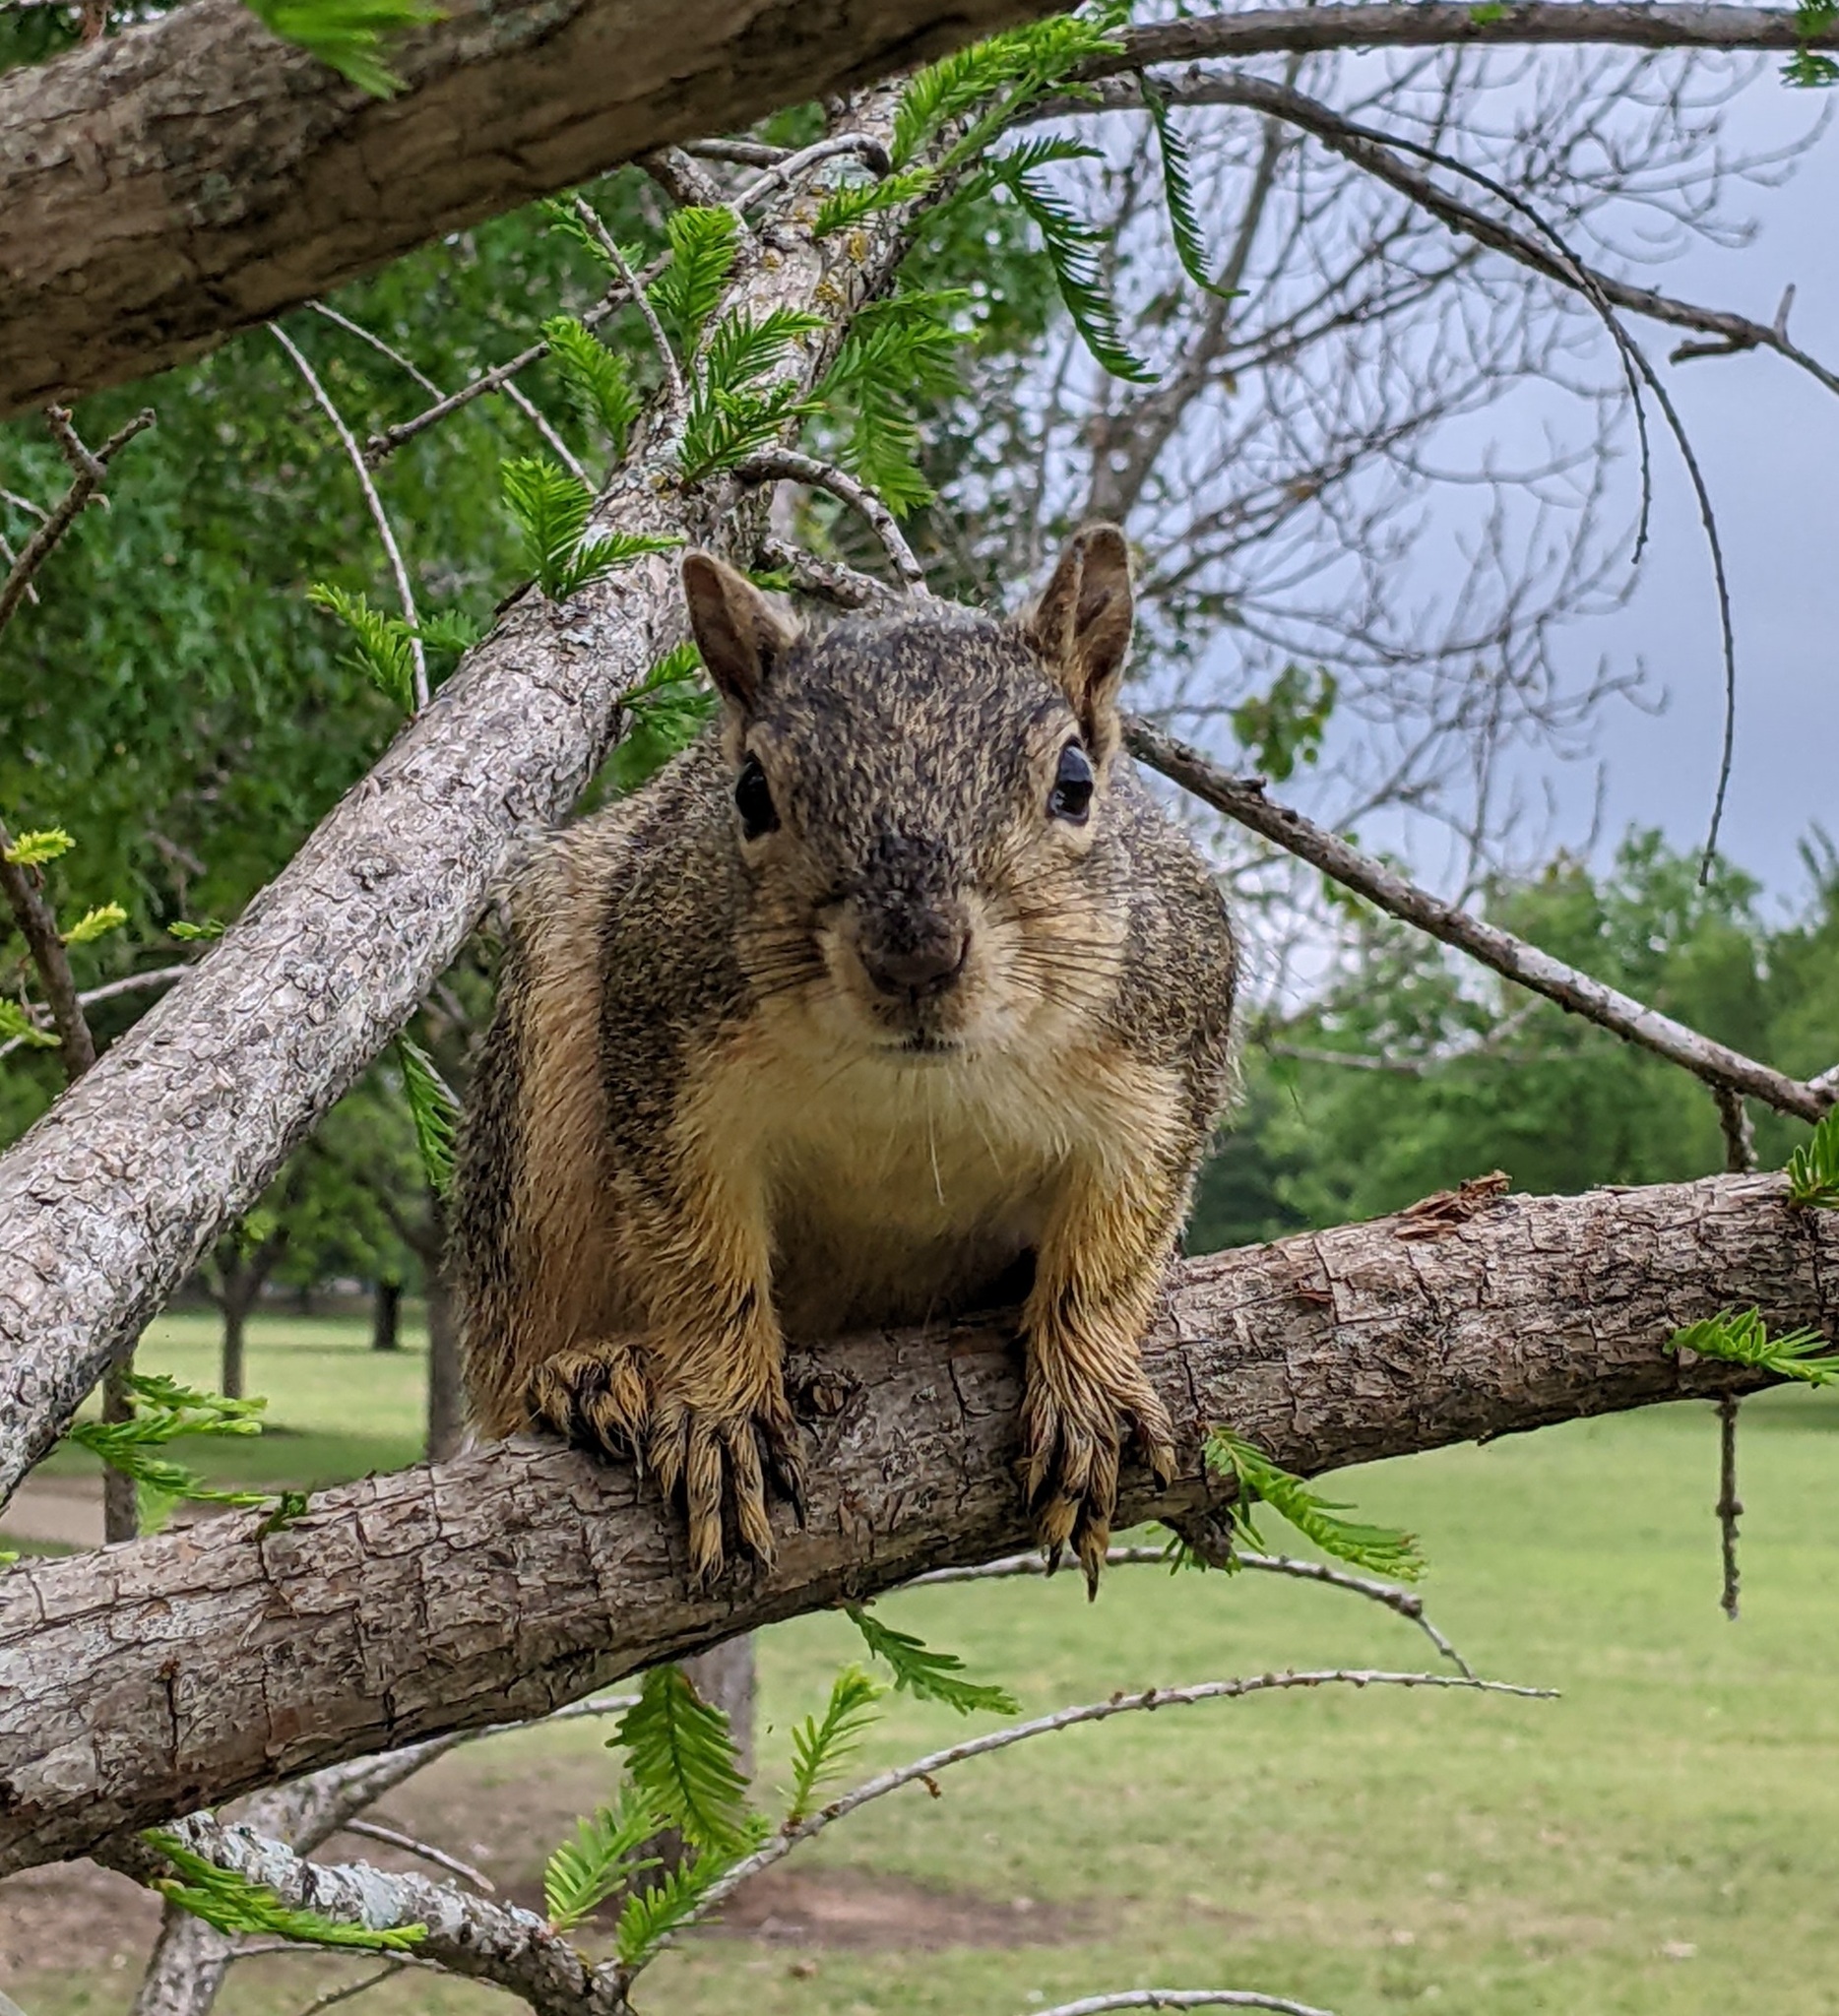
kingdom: Animalia
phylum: Chordata
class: Mammalia
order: Rodentia
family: Sciuridae
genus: Sciurus
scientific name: Sciurus niger
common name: Fox squirrel
